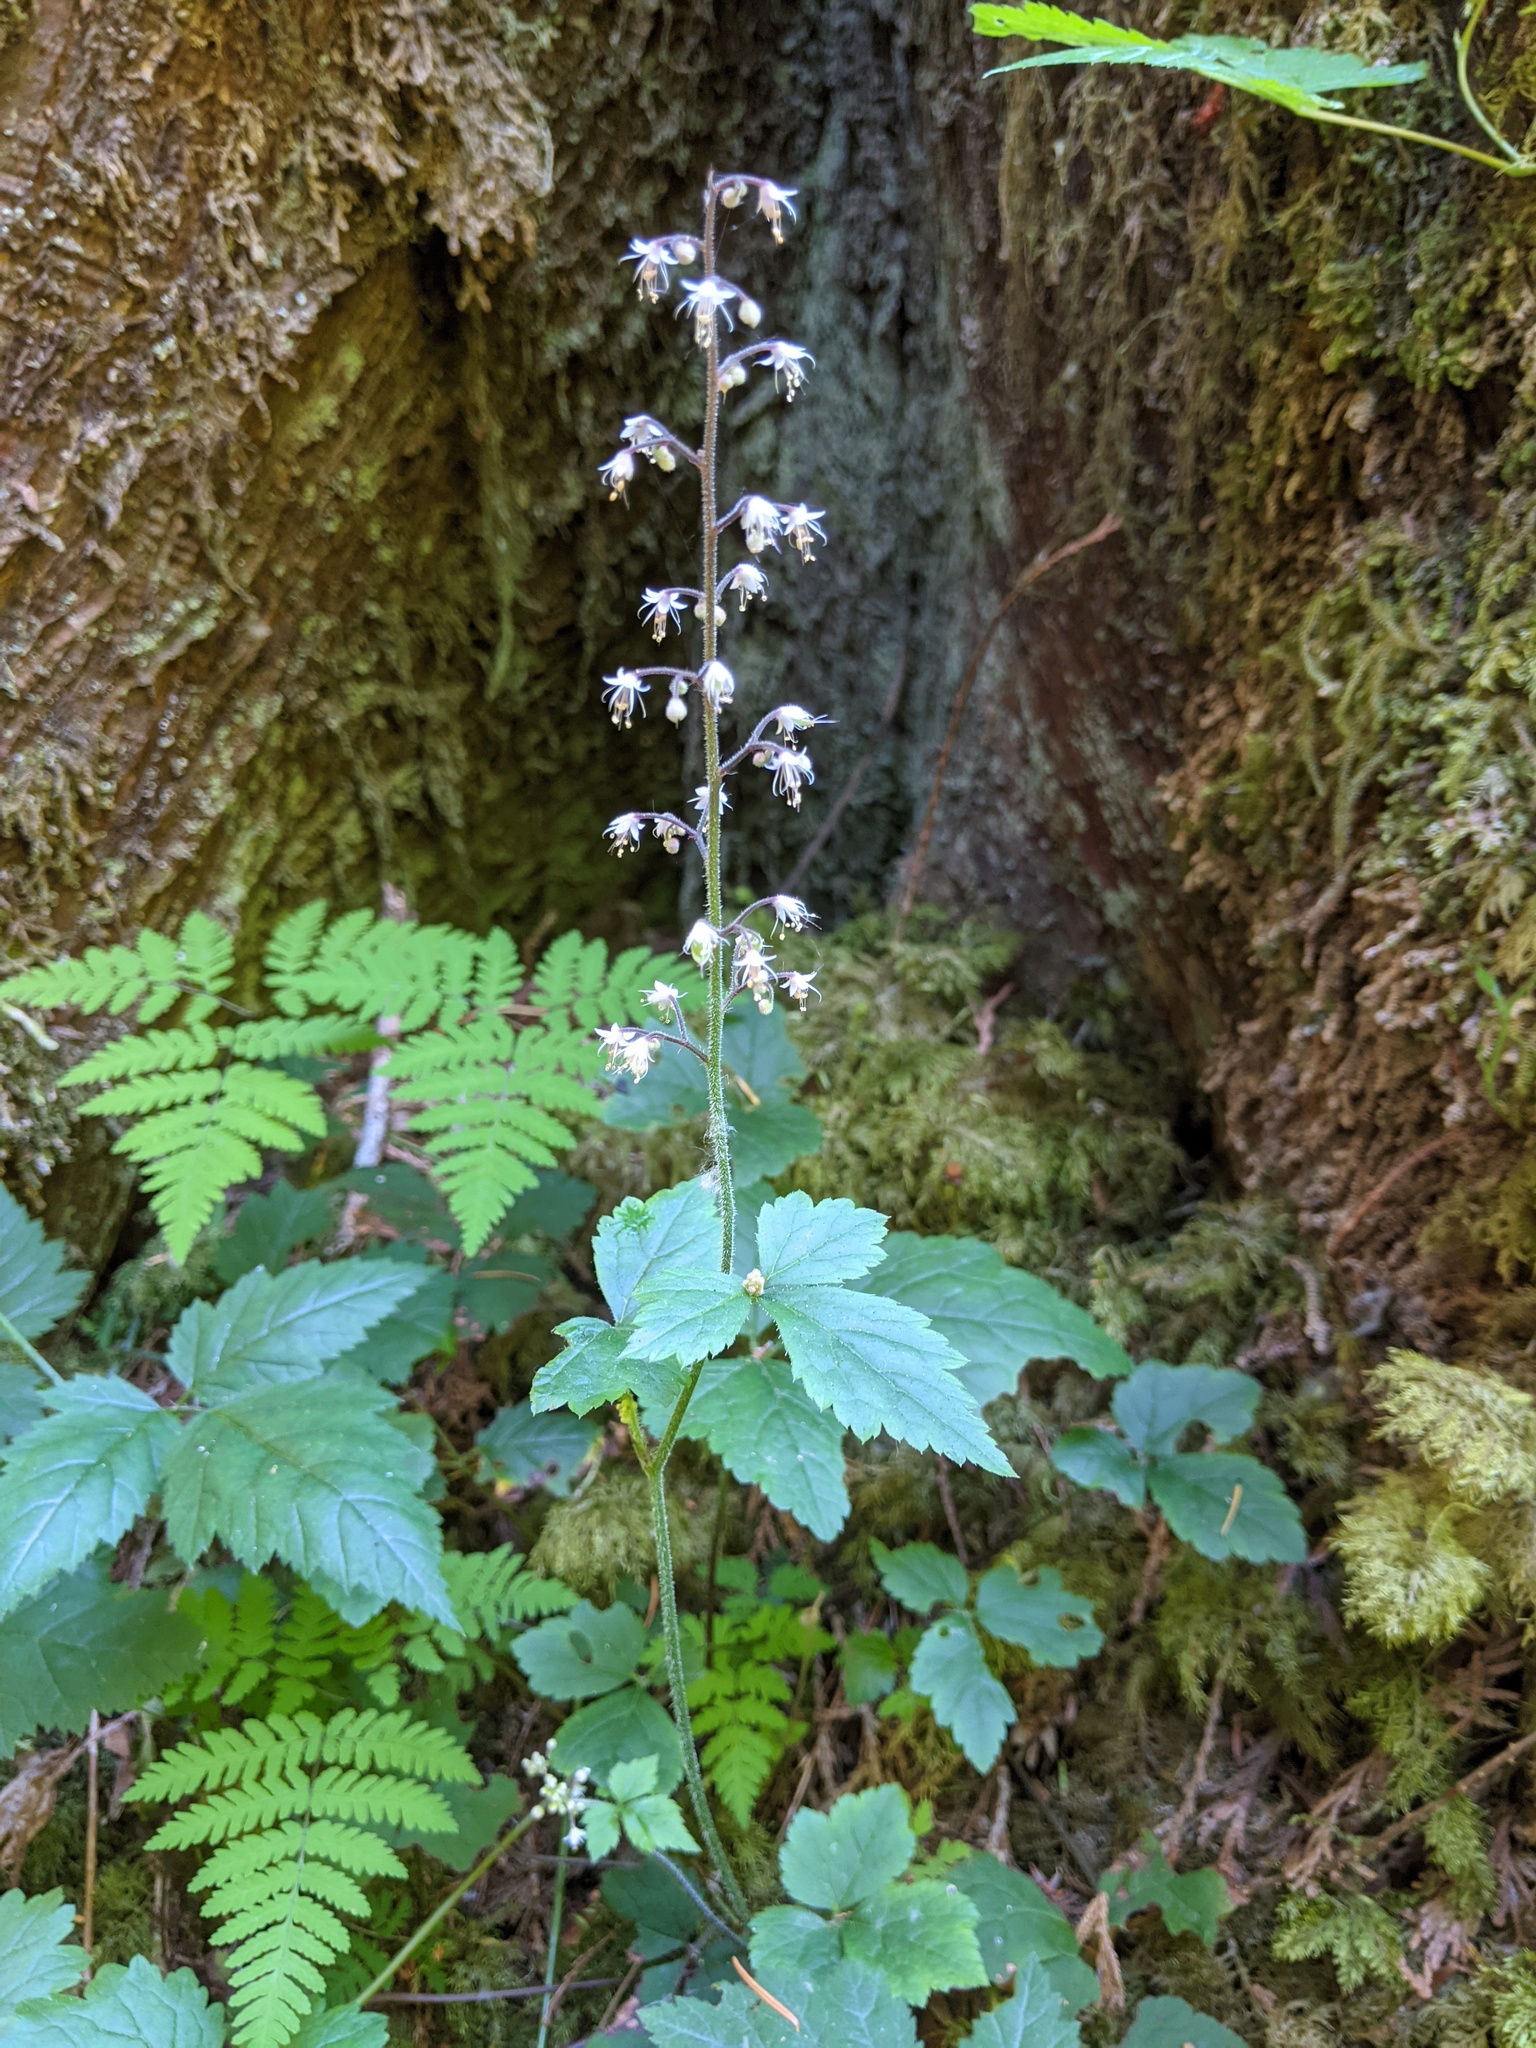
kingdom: Plantae
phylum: Tracheophyta
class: Magnoliopsida
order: Saxifragales
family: Saxifragaceae
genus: Tiarella
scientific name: Tiarella trifoliata
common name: Sugar-scoop
